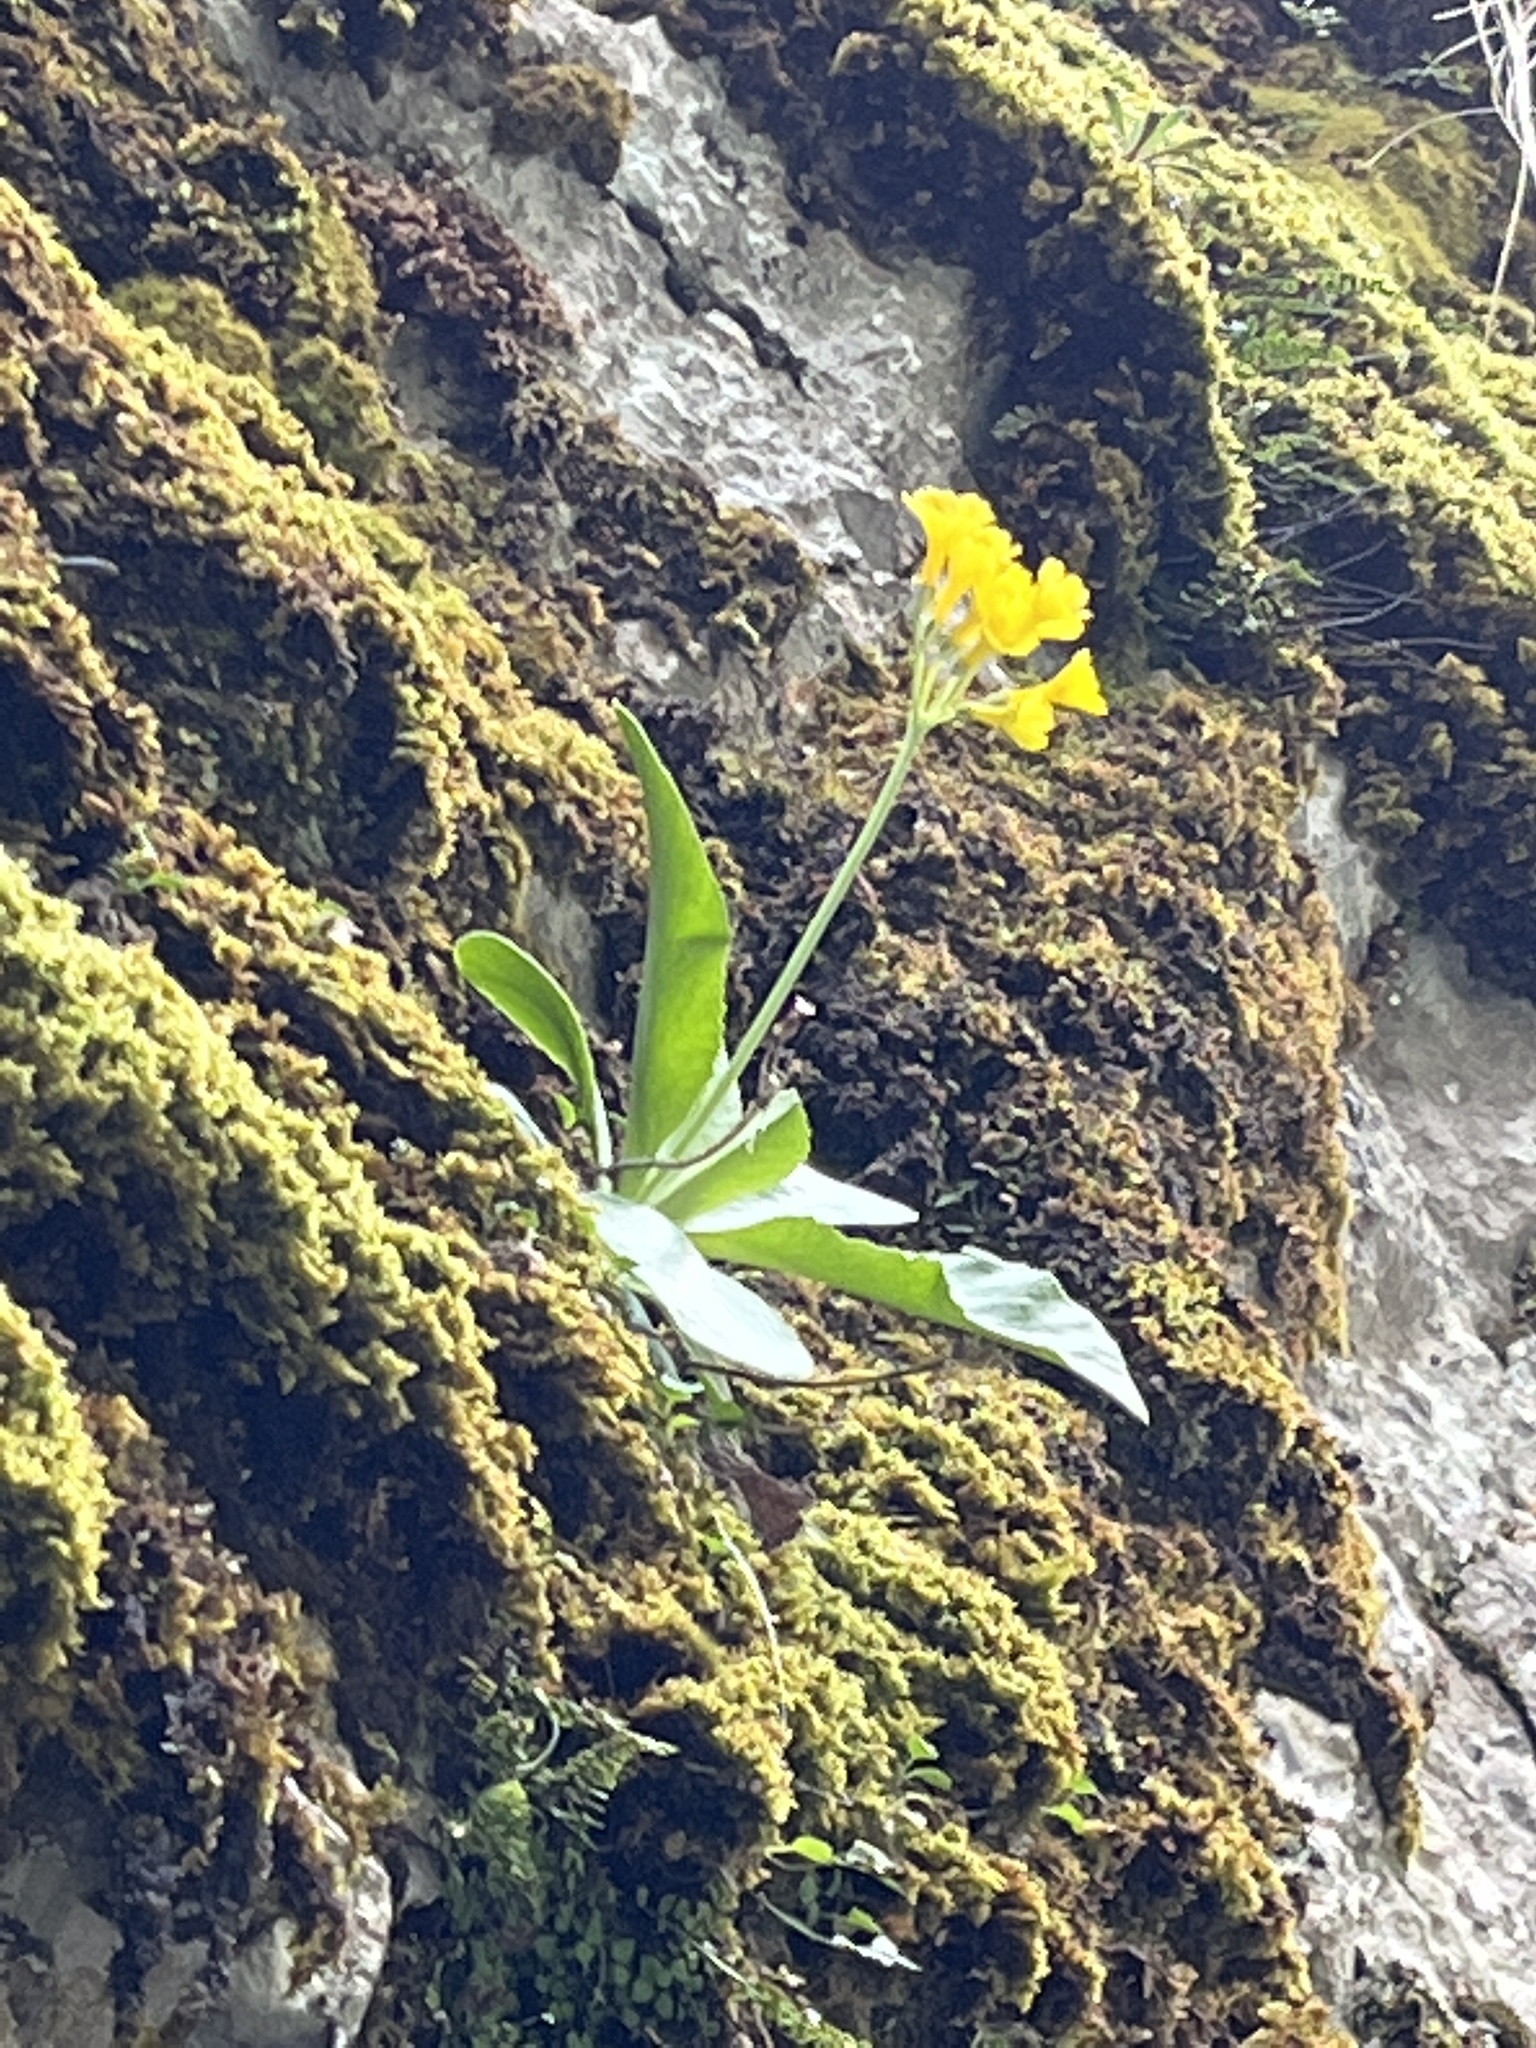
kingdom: Plantae
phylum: Tracheophyta
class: Magnoliopsida
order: Ericales
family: Primulaceae
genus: Primula
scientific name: Primula auricula
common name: Auricula
